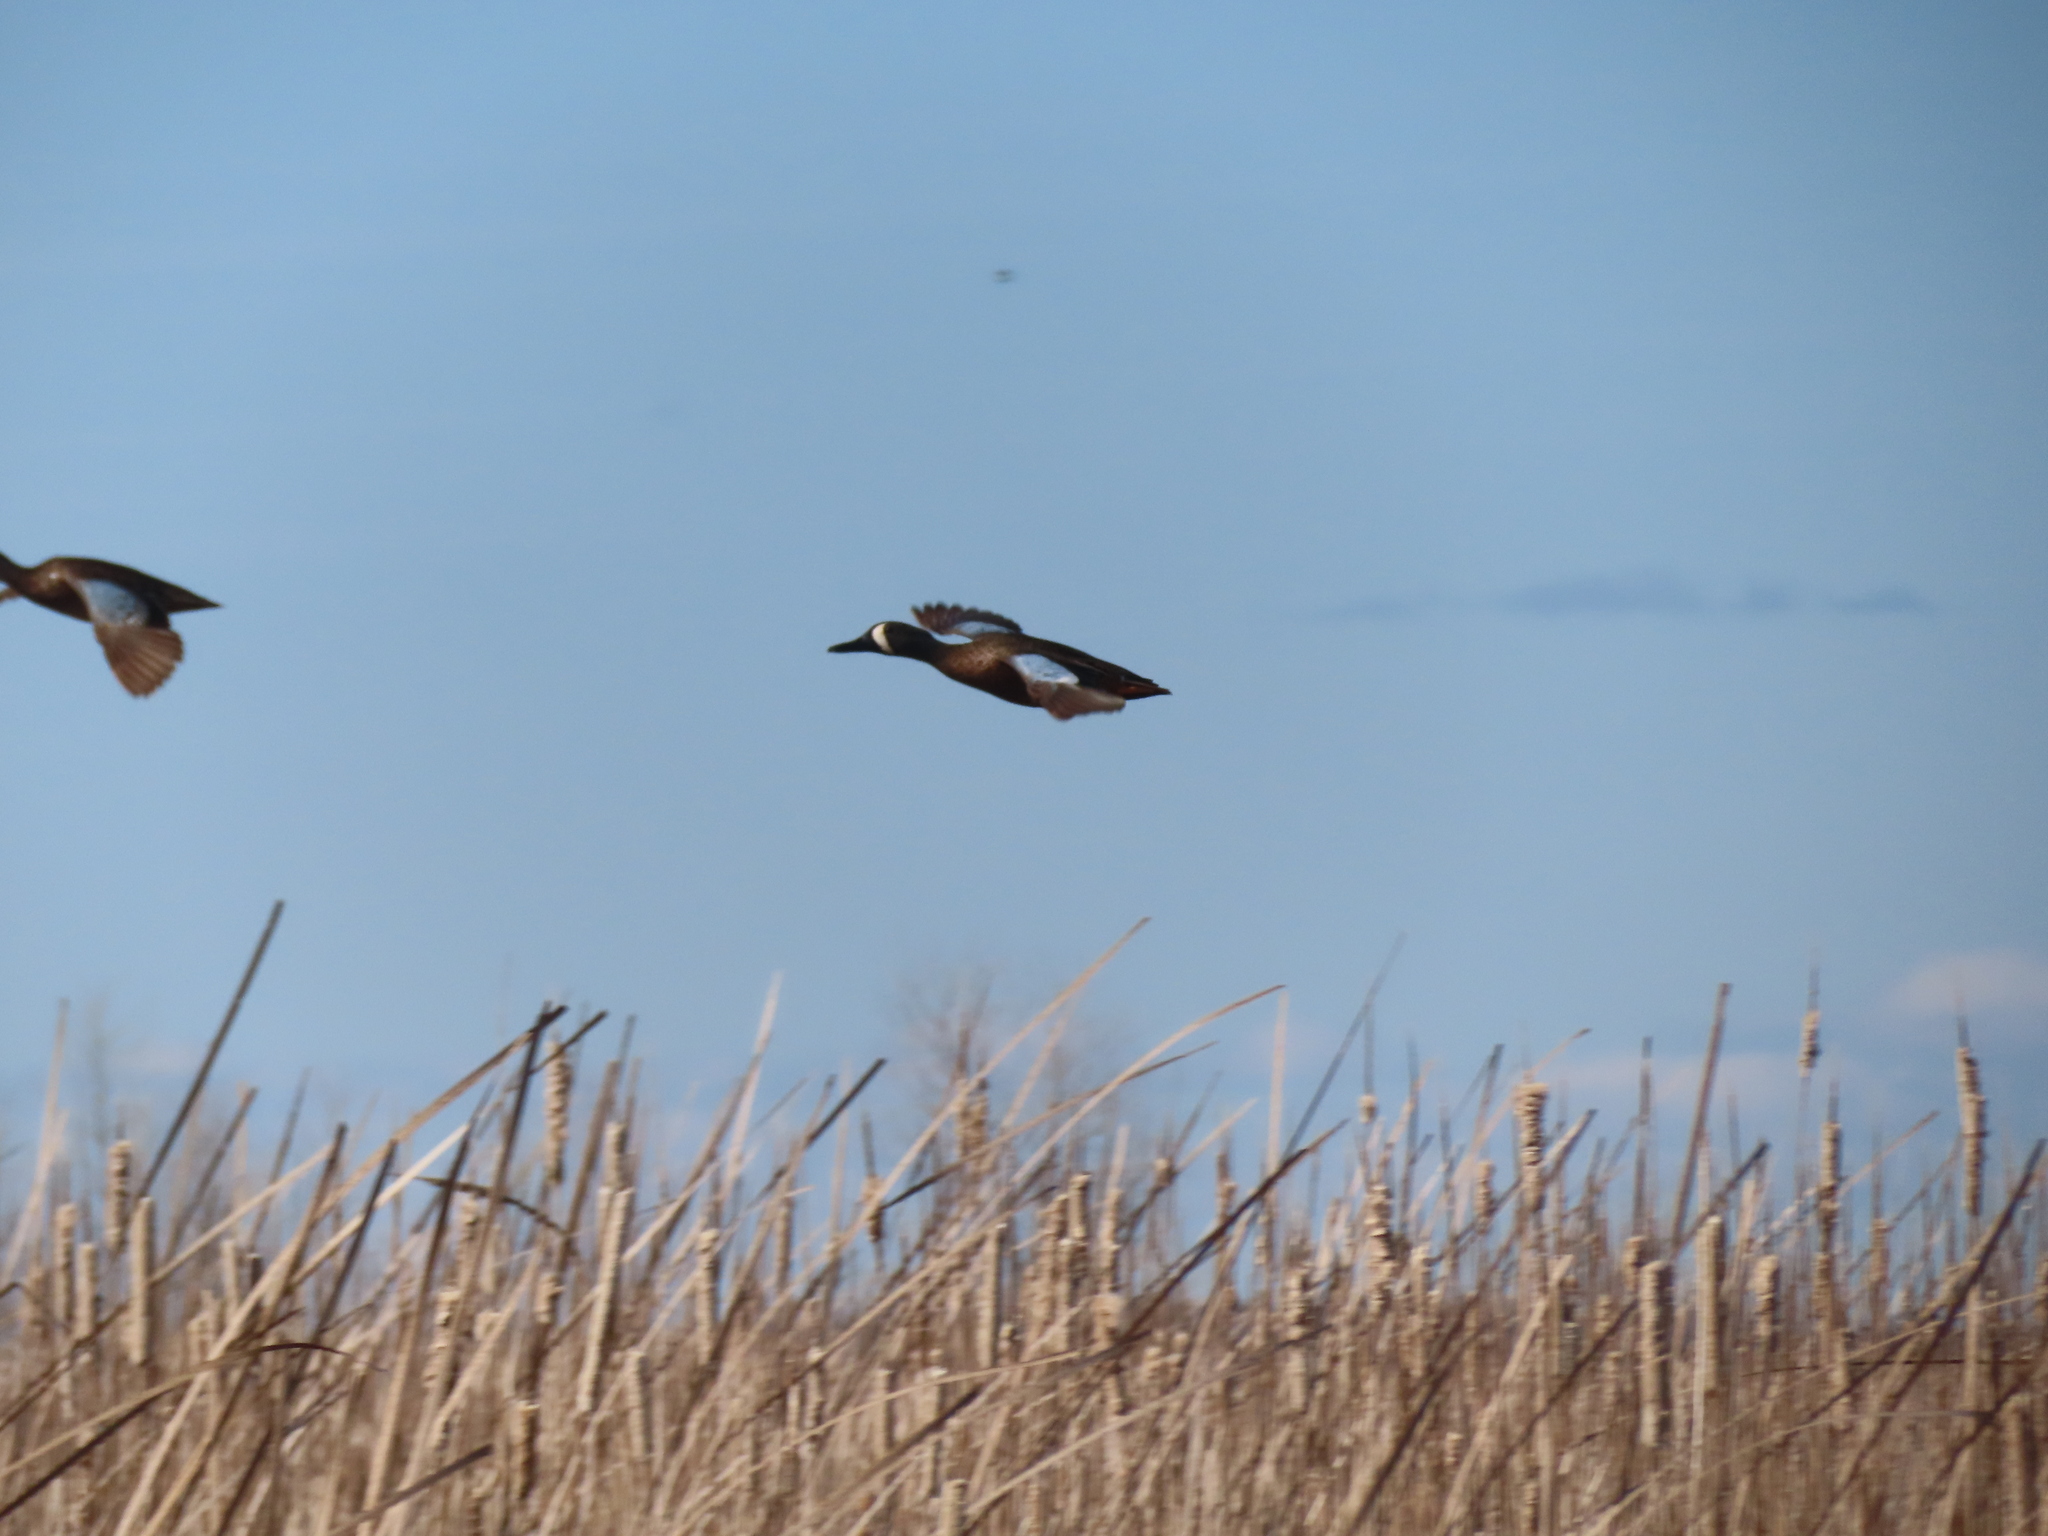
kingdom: Animalia
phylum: Chordata
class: Aves
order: Anseriformes
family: Anatidae
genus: Spatula
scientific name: Spatula discors
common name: Blue-winged teal
